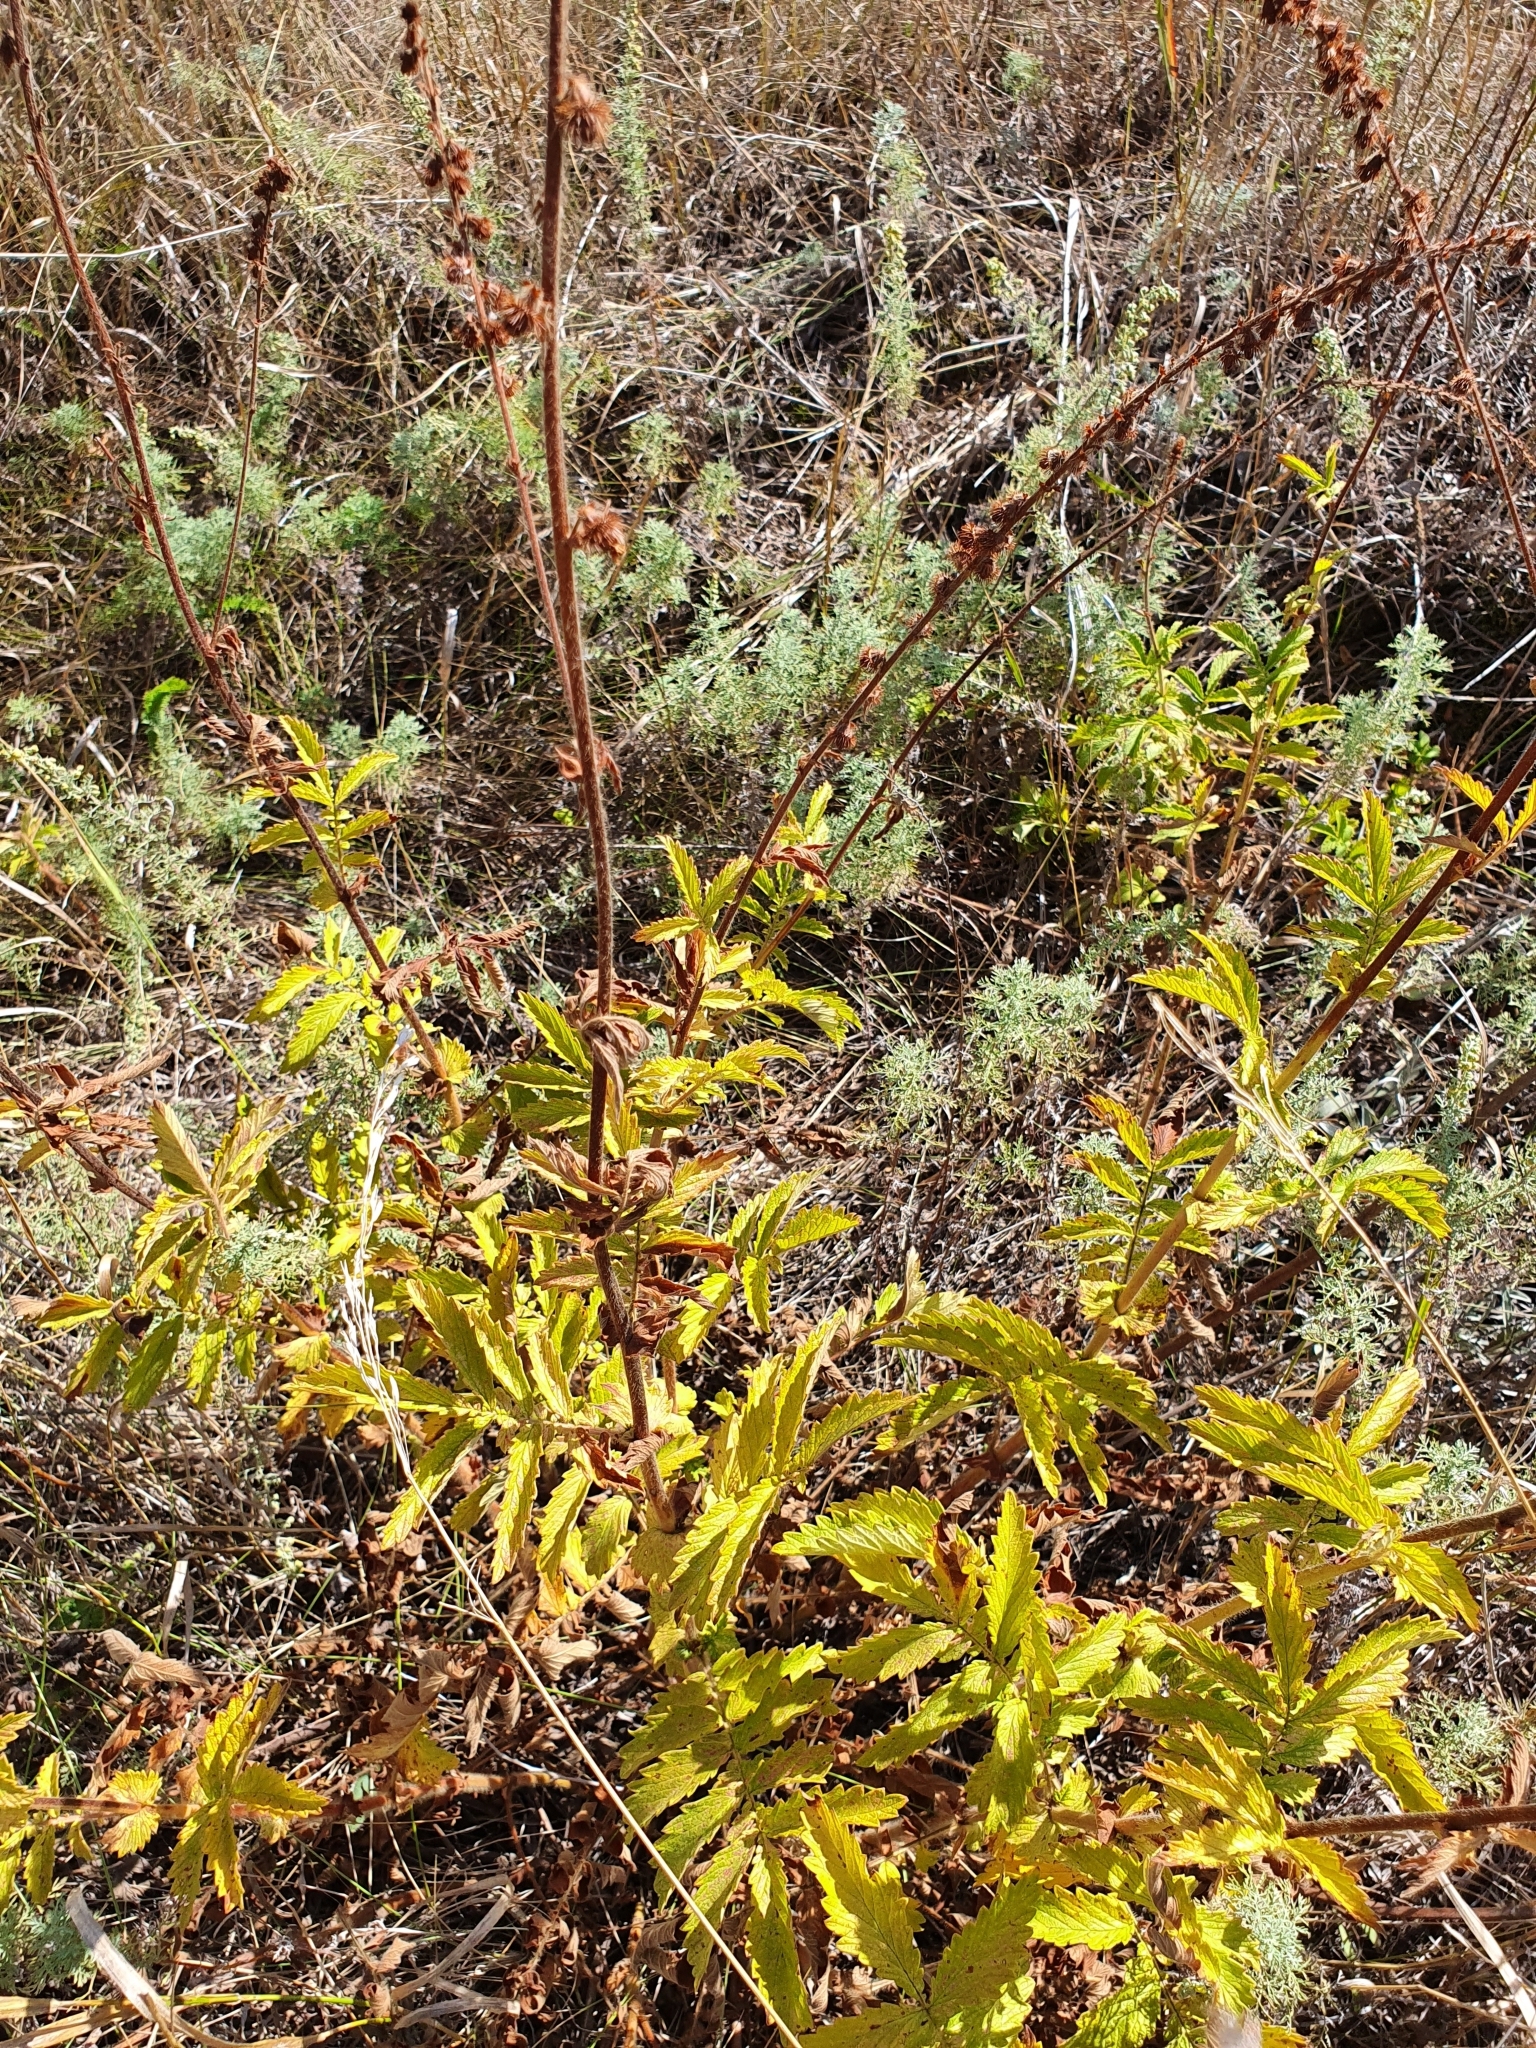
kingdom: Plantae
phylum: Tracheophyta
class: Magnoliopsida
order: Rosales
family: Rosaceae
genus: Agrimonia
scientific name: Agrimonia eupatoria
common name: Agrimony
